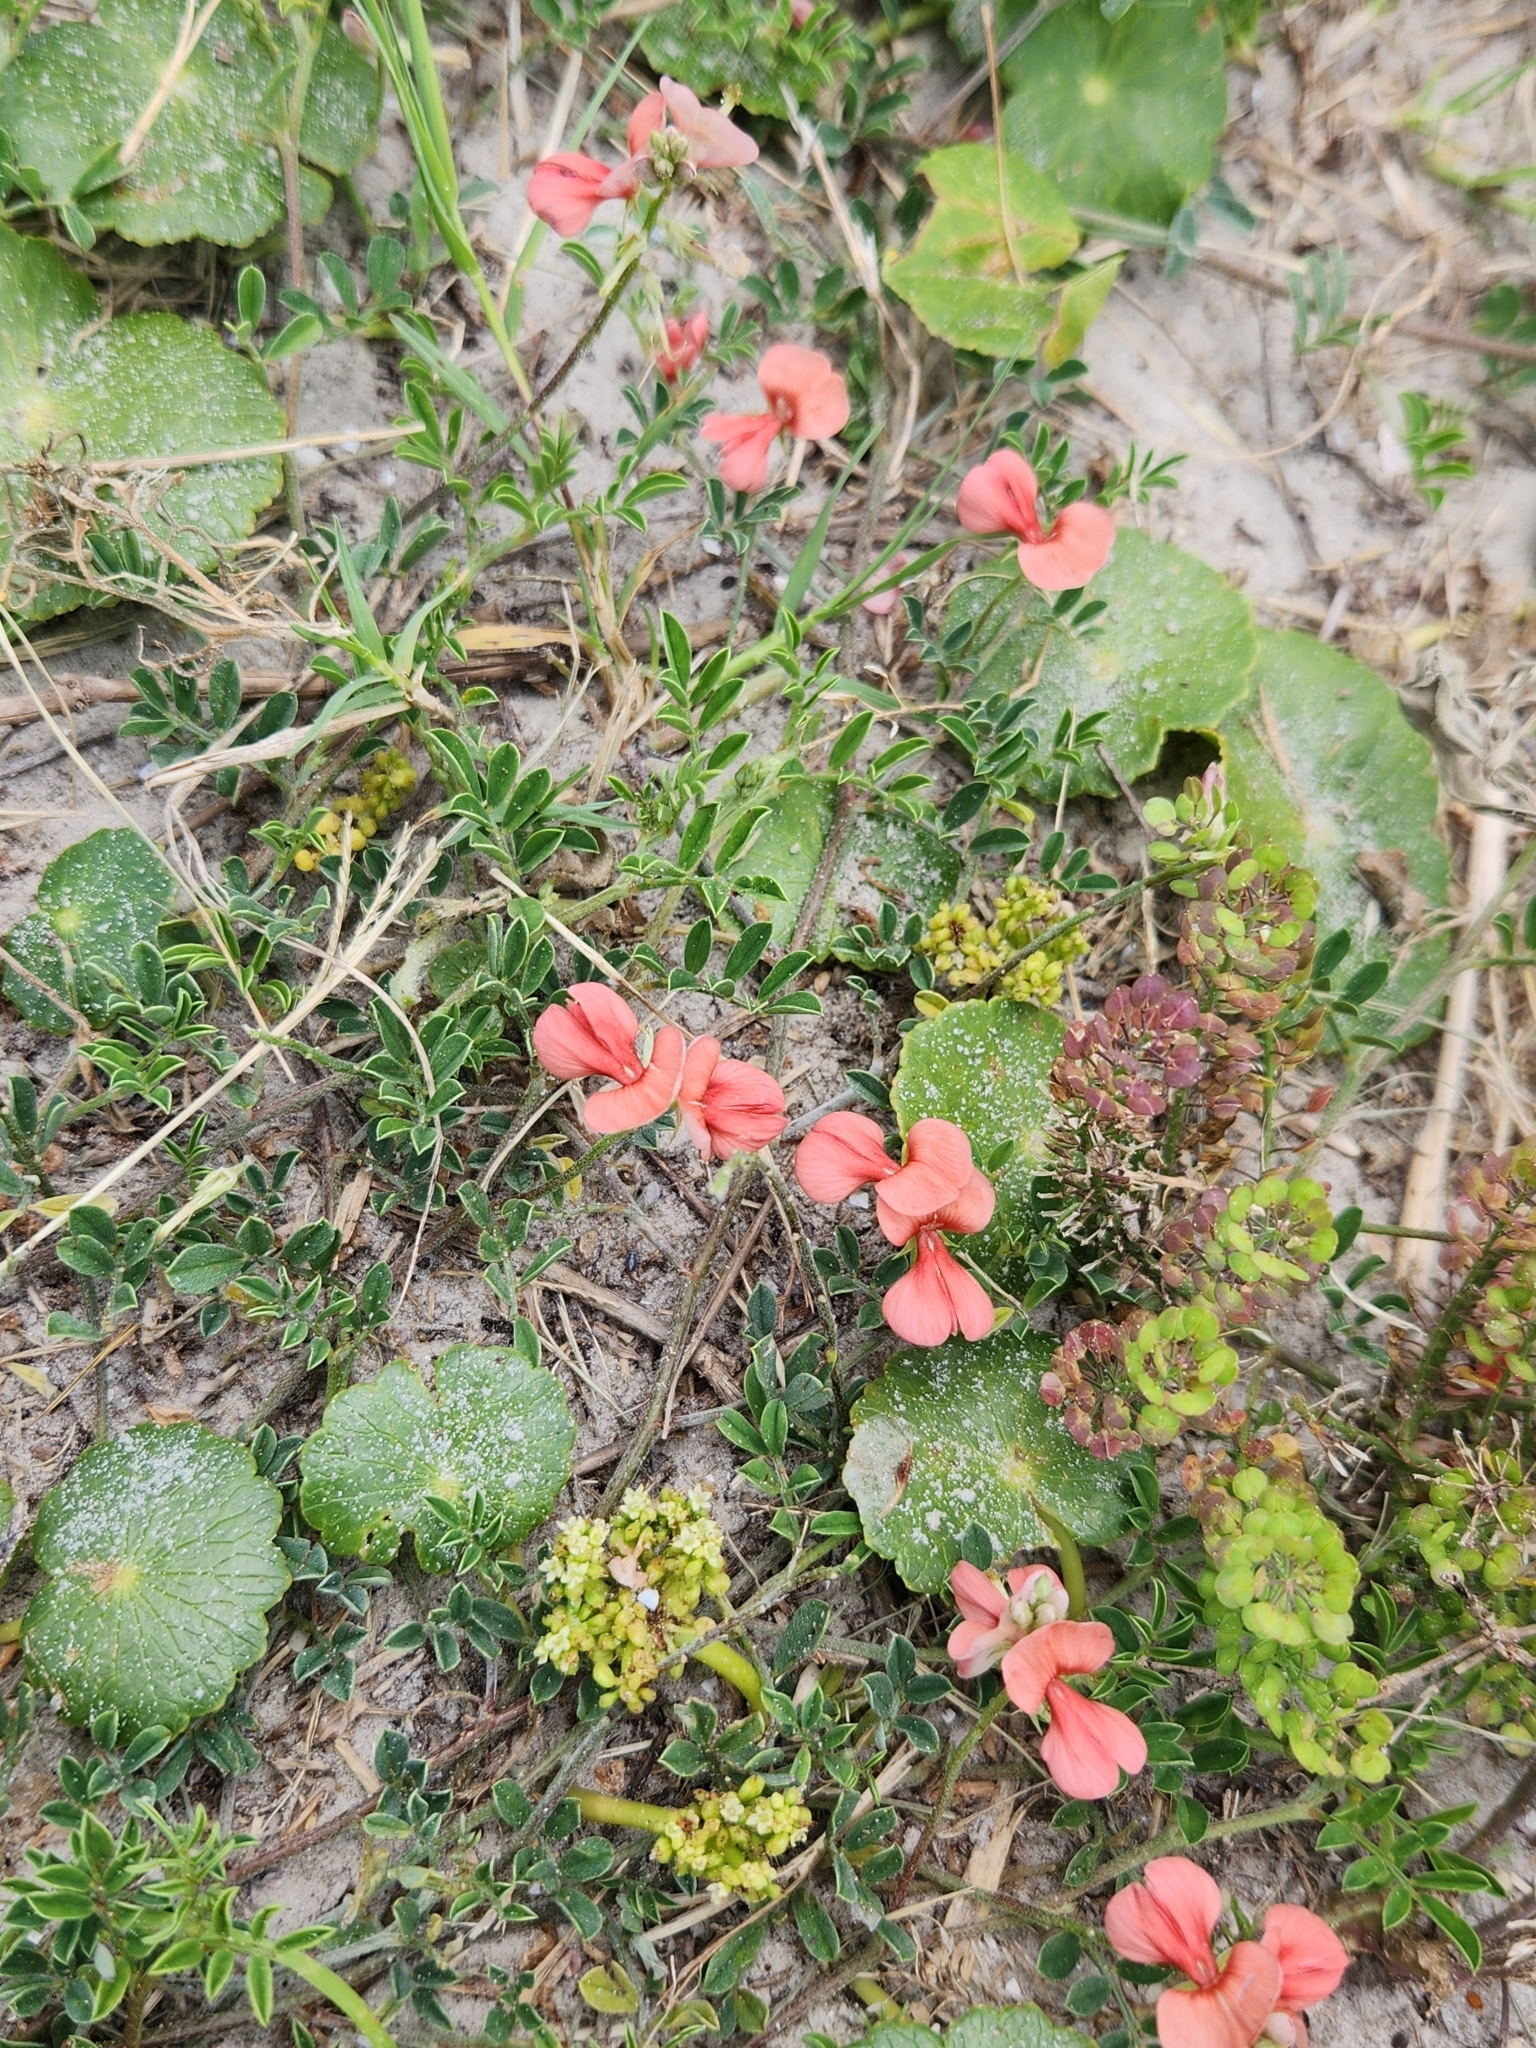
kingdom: Plantae
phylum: Tracheophyta
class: Magnoliopsida
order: Fabales
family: Fabaceae
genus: Indigofera
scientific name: Indigofera miniata
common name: Coast indigo
